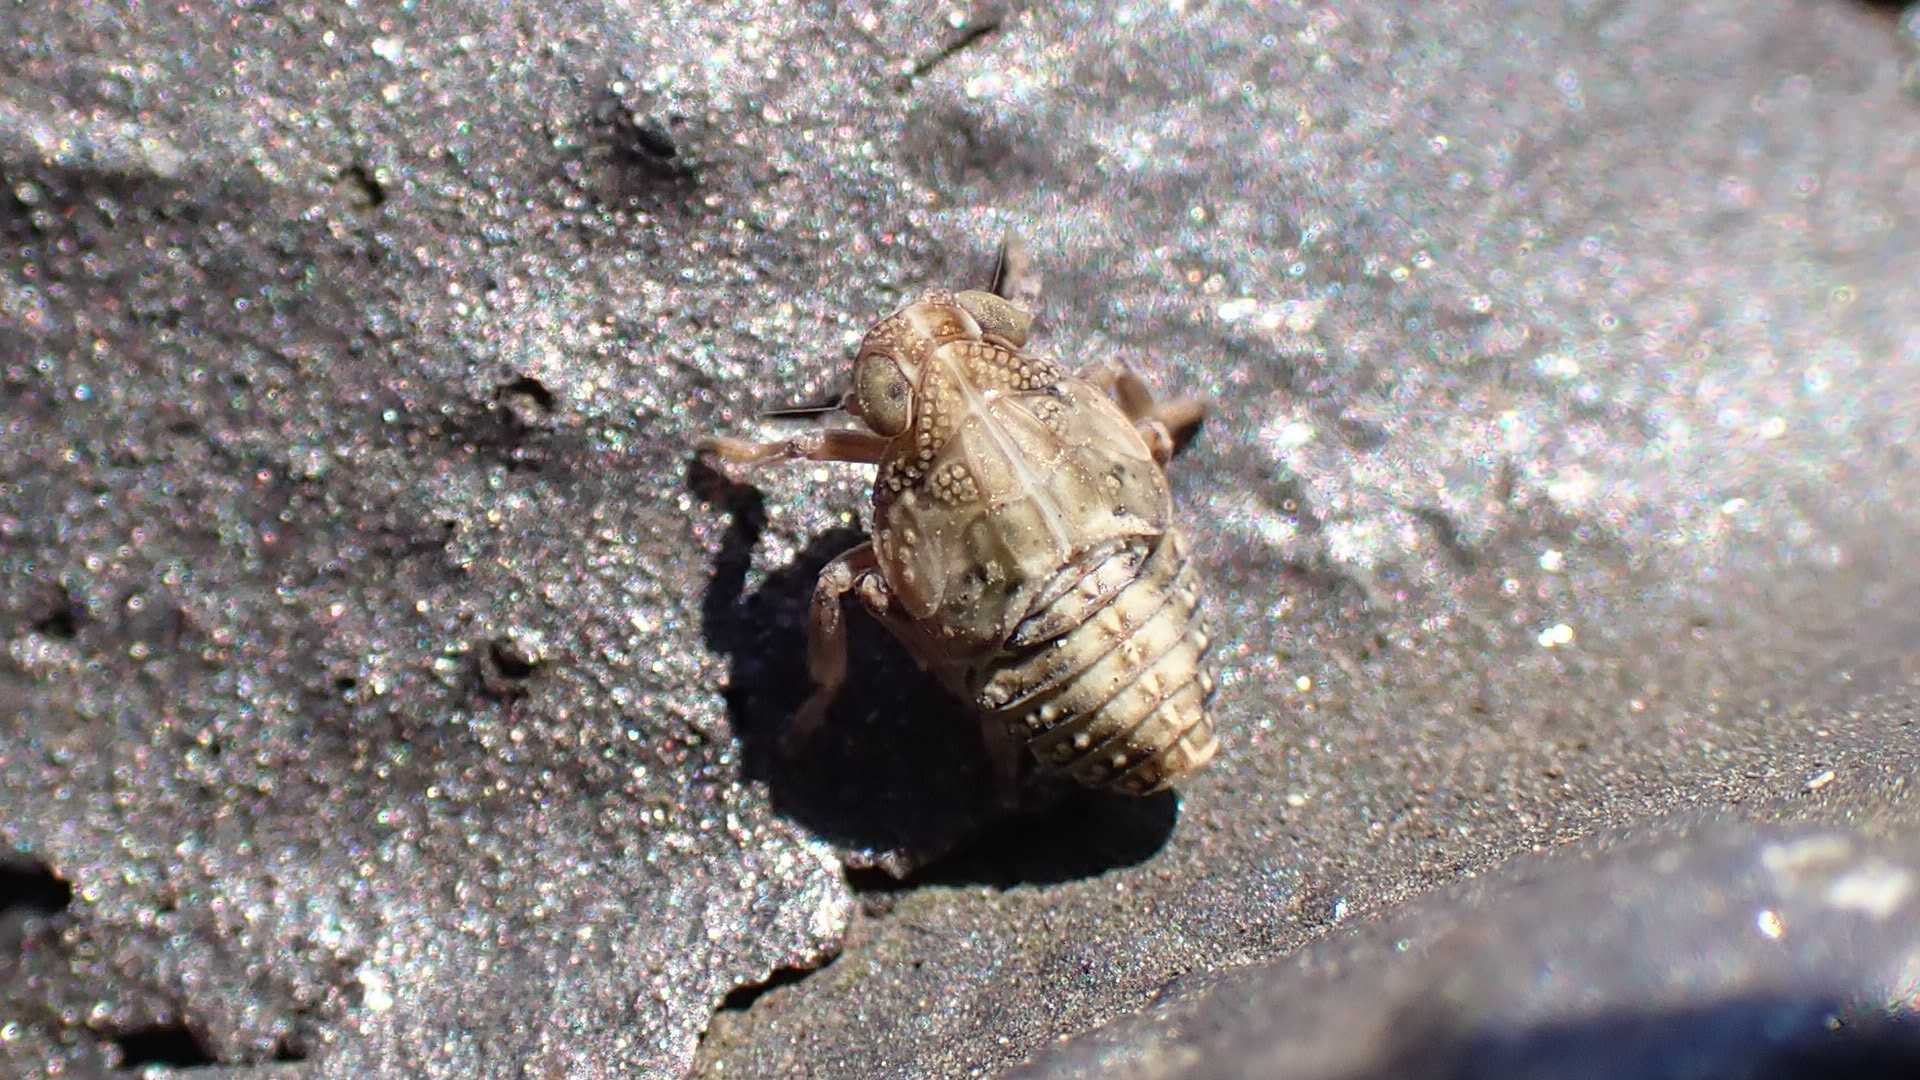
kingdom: Animalia
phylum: Arthropoda
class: Insecta
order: Hemiptera
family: Issidae
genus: Issus
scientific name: Issus
